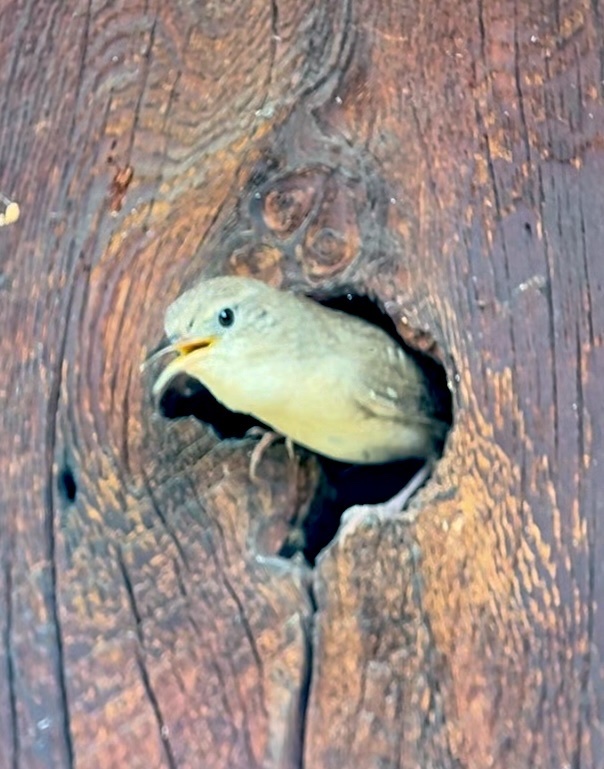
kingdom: Animalia
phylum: Chordata
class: Aves
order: Passeriformes
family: Troglodytidae
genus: Troglodytes
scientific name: Troglodytes aedon
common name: House wren
